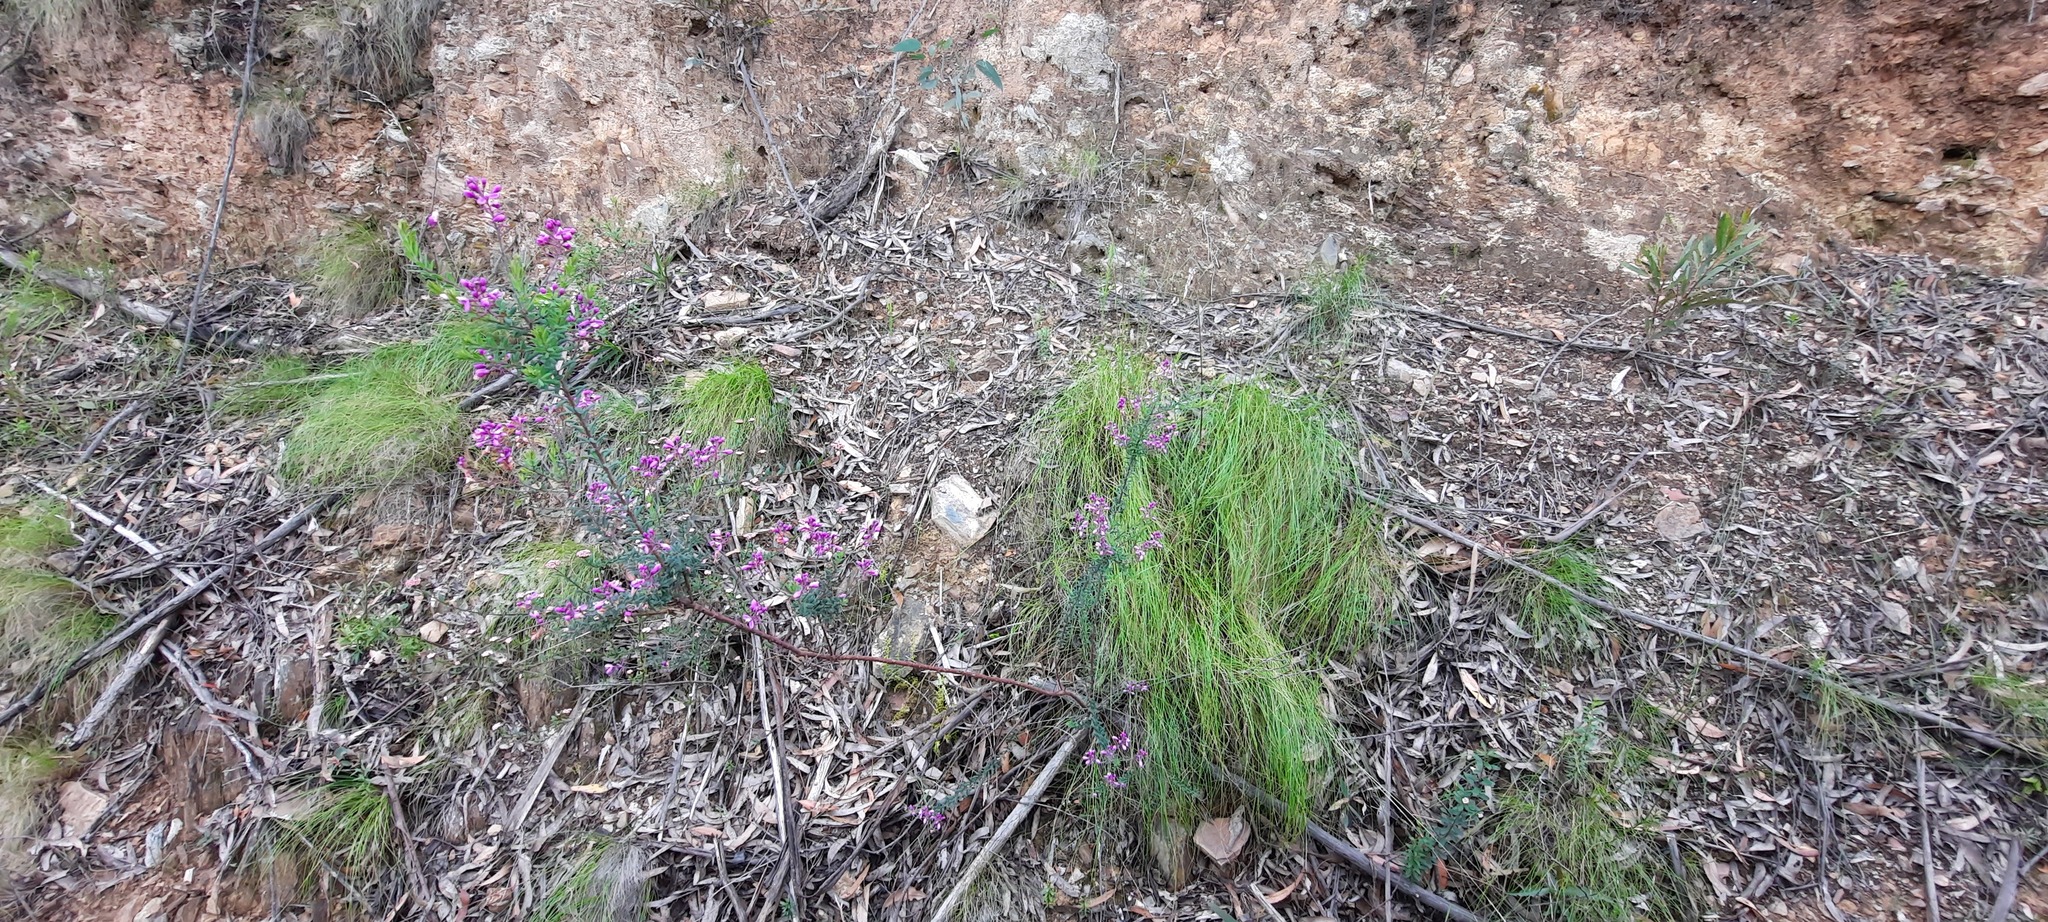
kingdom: Plantae
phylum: Tracheophyta
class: Magnoliopsida
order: Fabales
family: Polygalaceae
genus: Comesperma
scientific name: Comesperma ericinum
